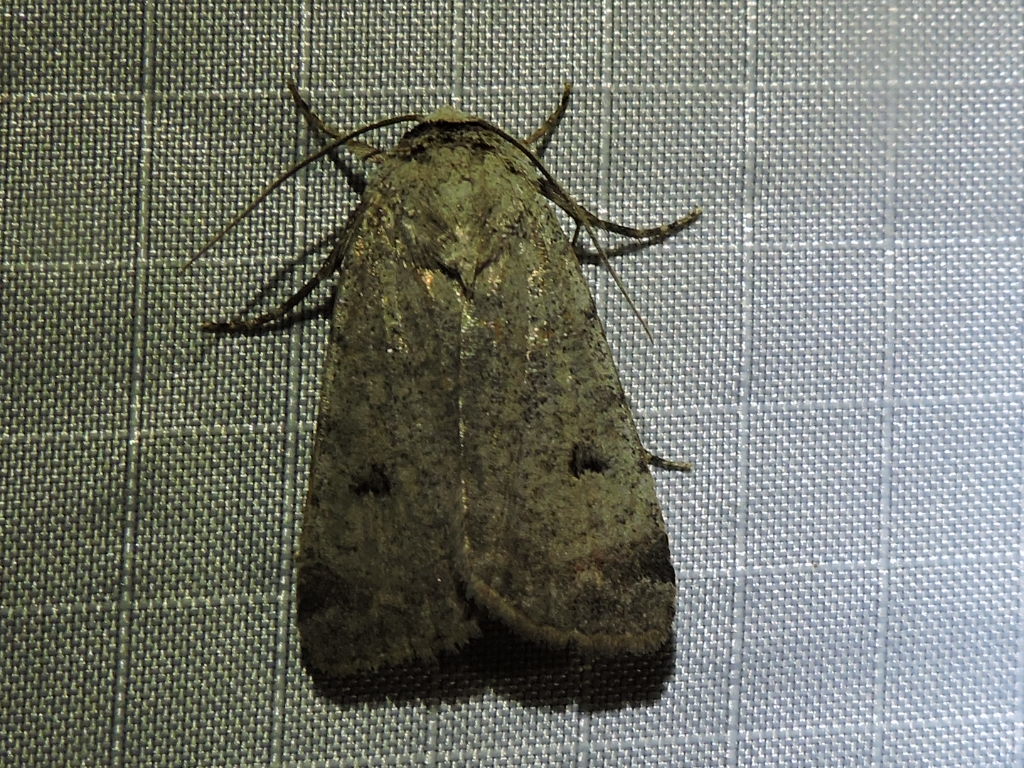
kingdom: Animalia
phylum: Arthropoda
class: Insecta
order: Lepidoptera
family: Noctuidae
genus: Anicla
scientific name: Anicla infecta
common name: Green cutworm
